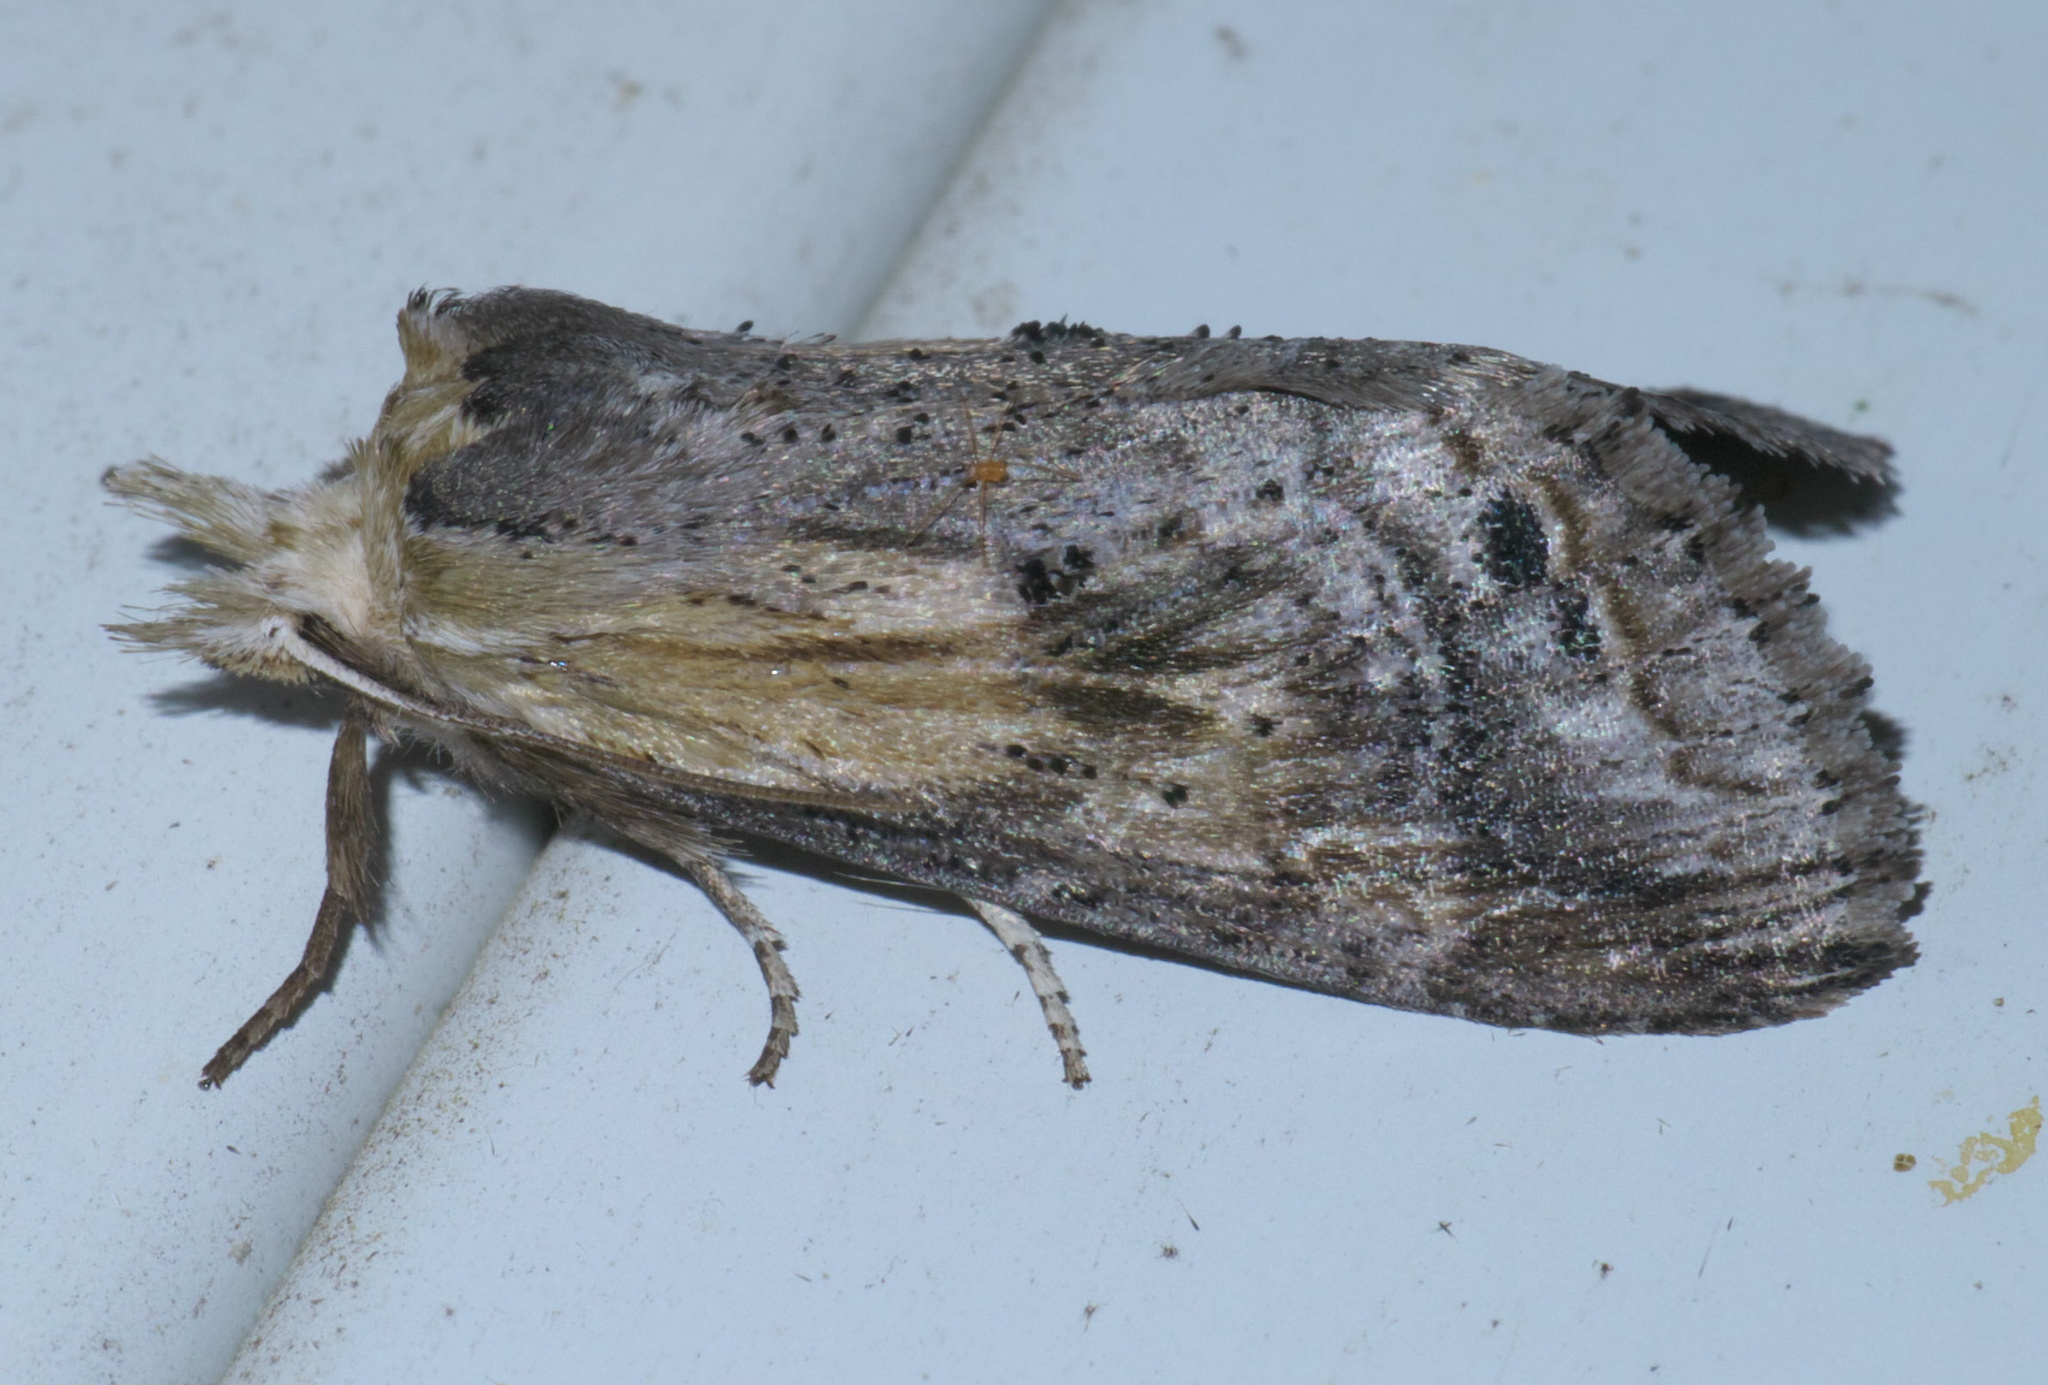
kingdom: Animalia
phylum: Arthropoda
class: Insecta
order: Lepidoptera
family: Notodontidae
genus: Dasylophia
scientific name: Dasylophia anguina
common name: Black-spotted prominent
